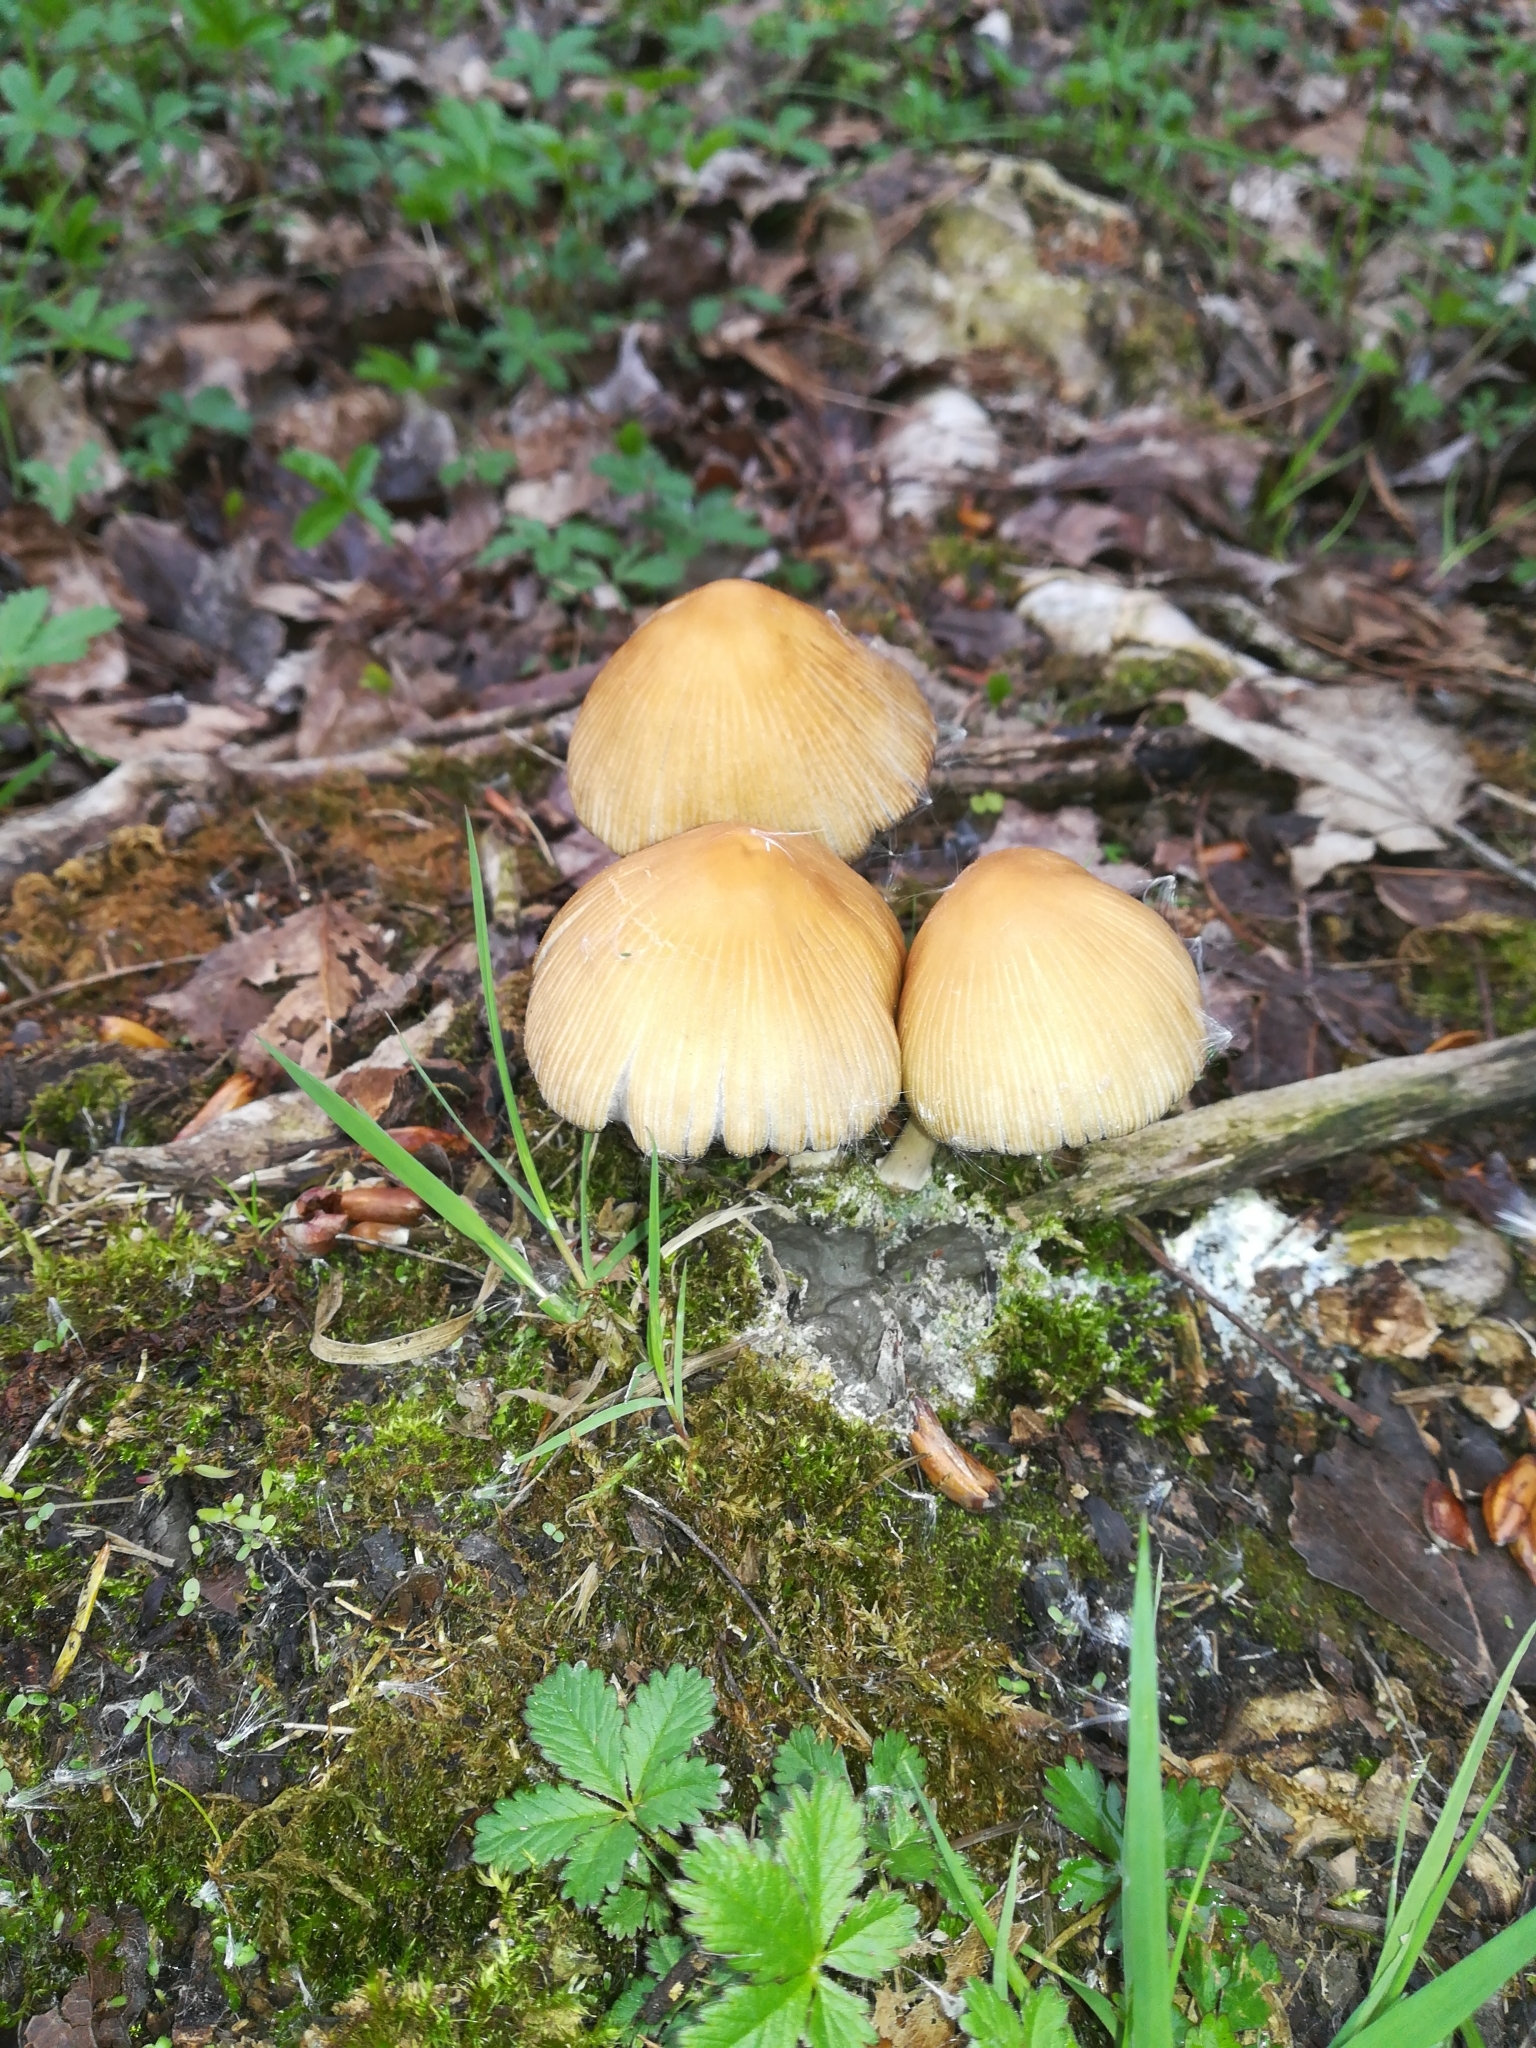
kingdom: Fungi
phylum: Basidiomycota
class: Agaricomycetes
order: Agaricales
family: Psathyrellaceae
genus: Coprinellus
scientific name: Coprinellus micaceus
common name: Glistening ink-cap
